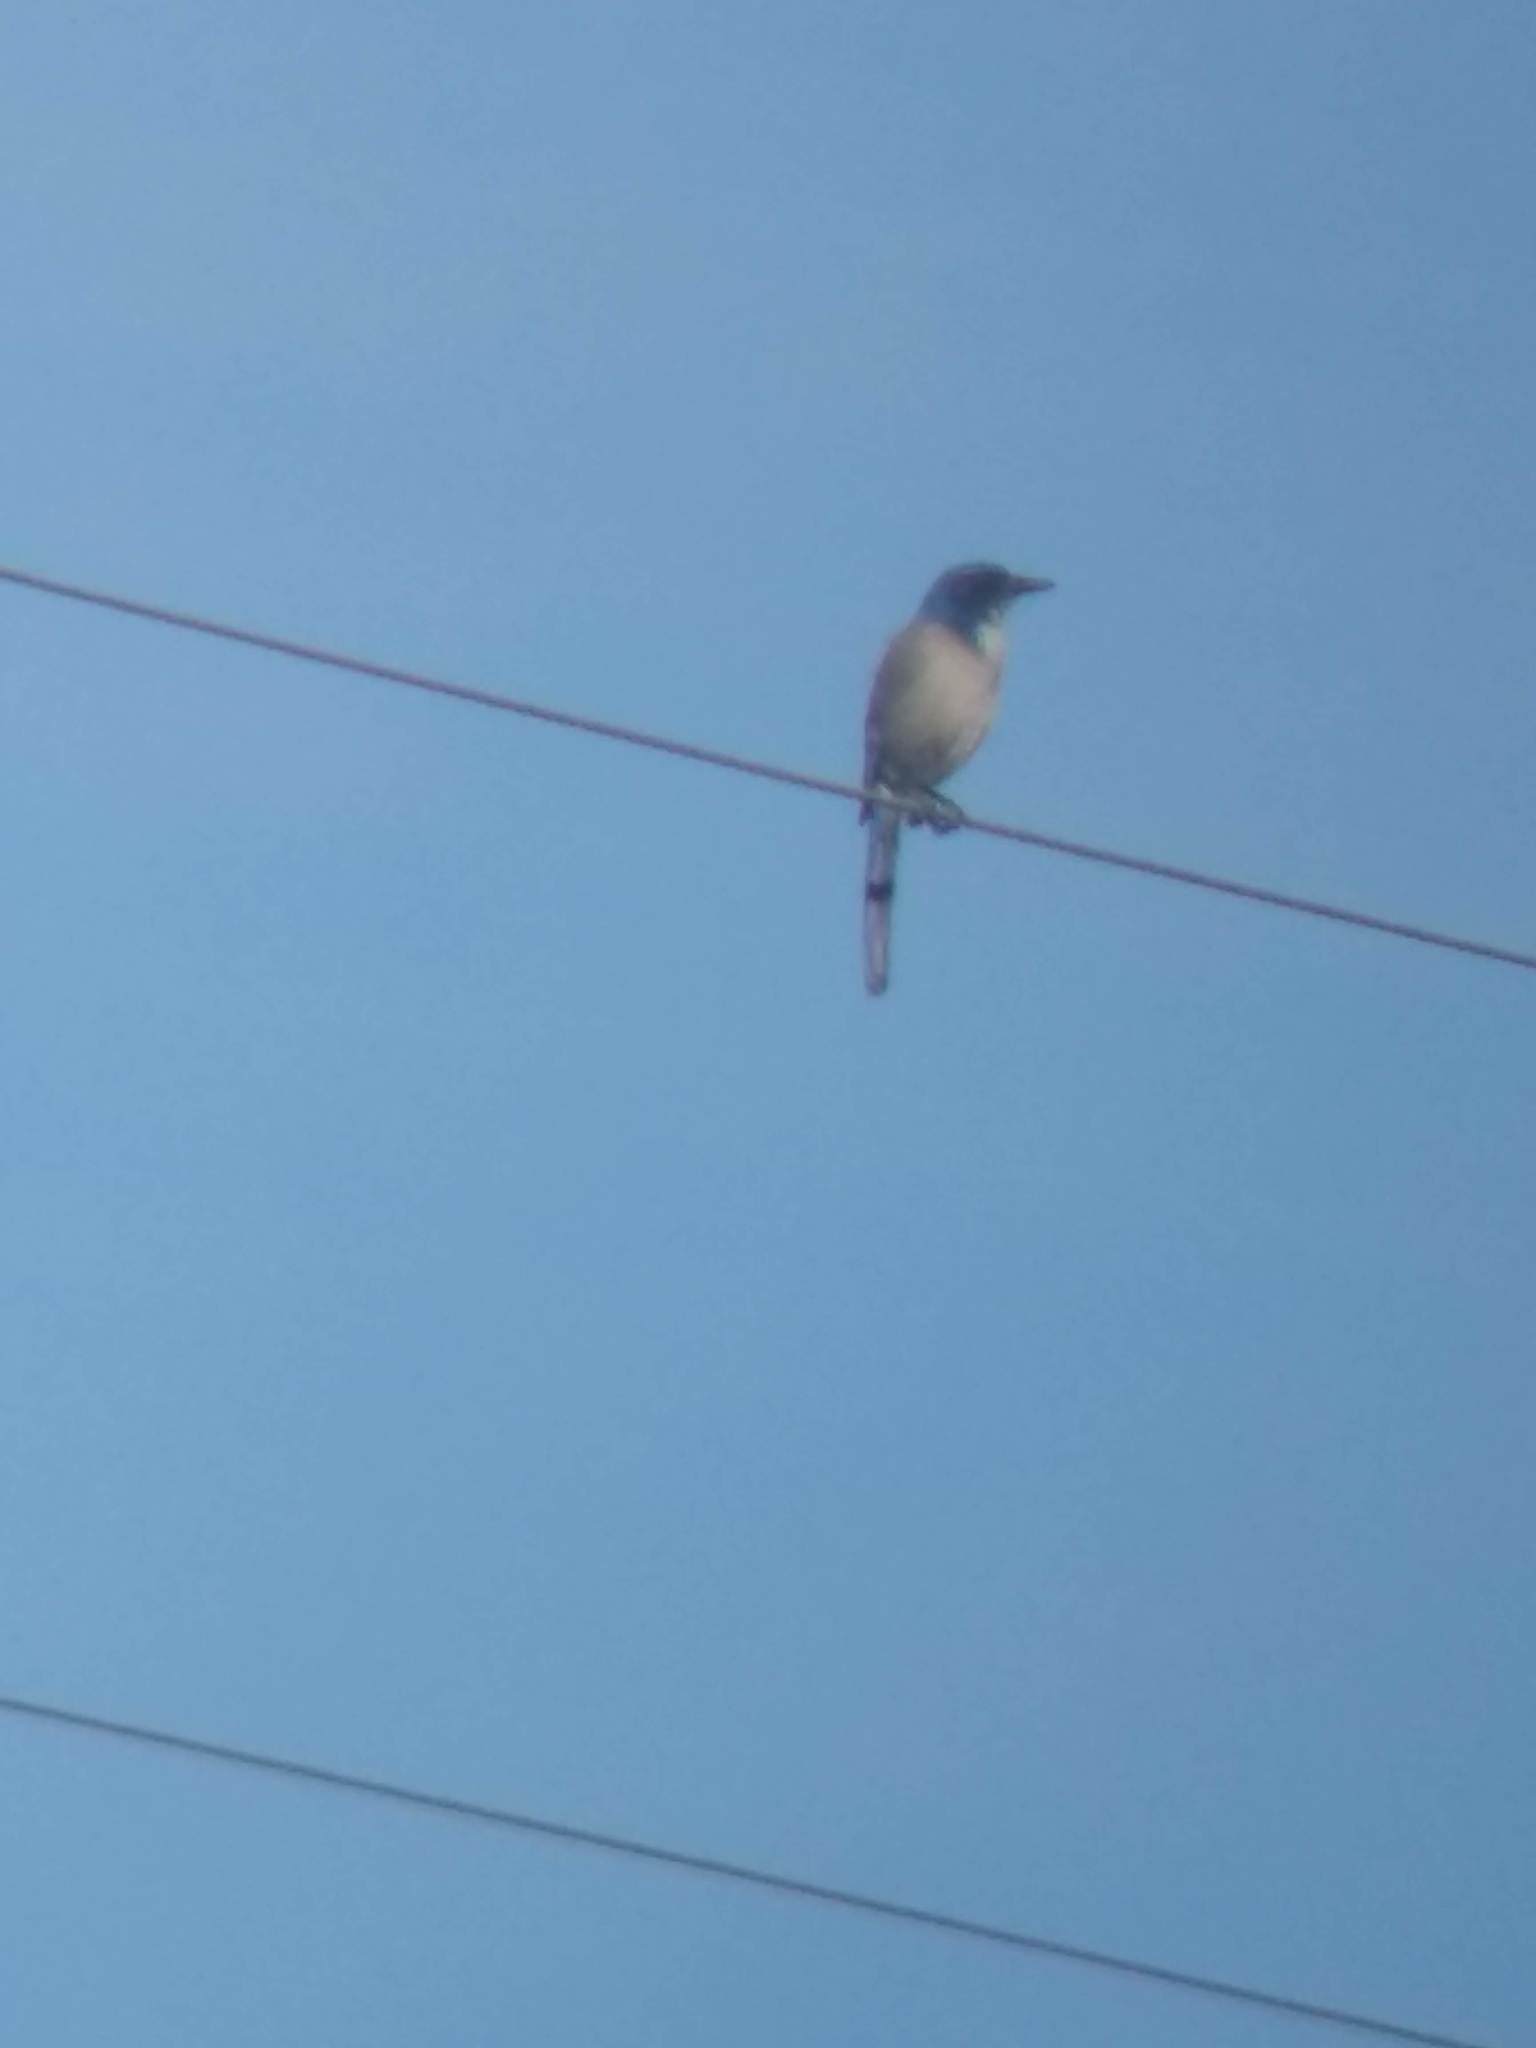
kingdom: Animalia
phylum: Chordata
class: Aves
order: Passeriformes
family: Corvidae
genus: Aphelocoma
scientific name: Aphelocoma californica
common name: California scrub-jay
